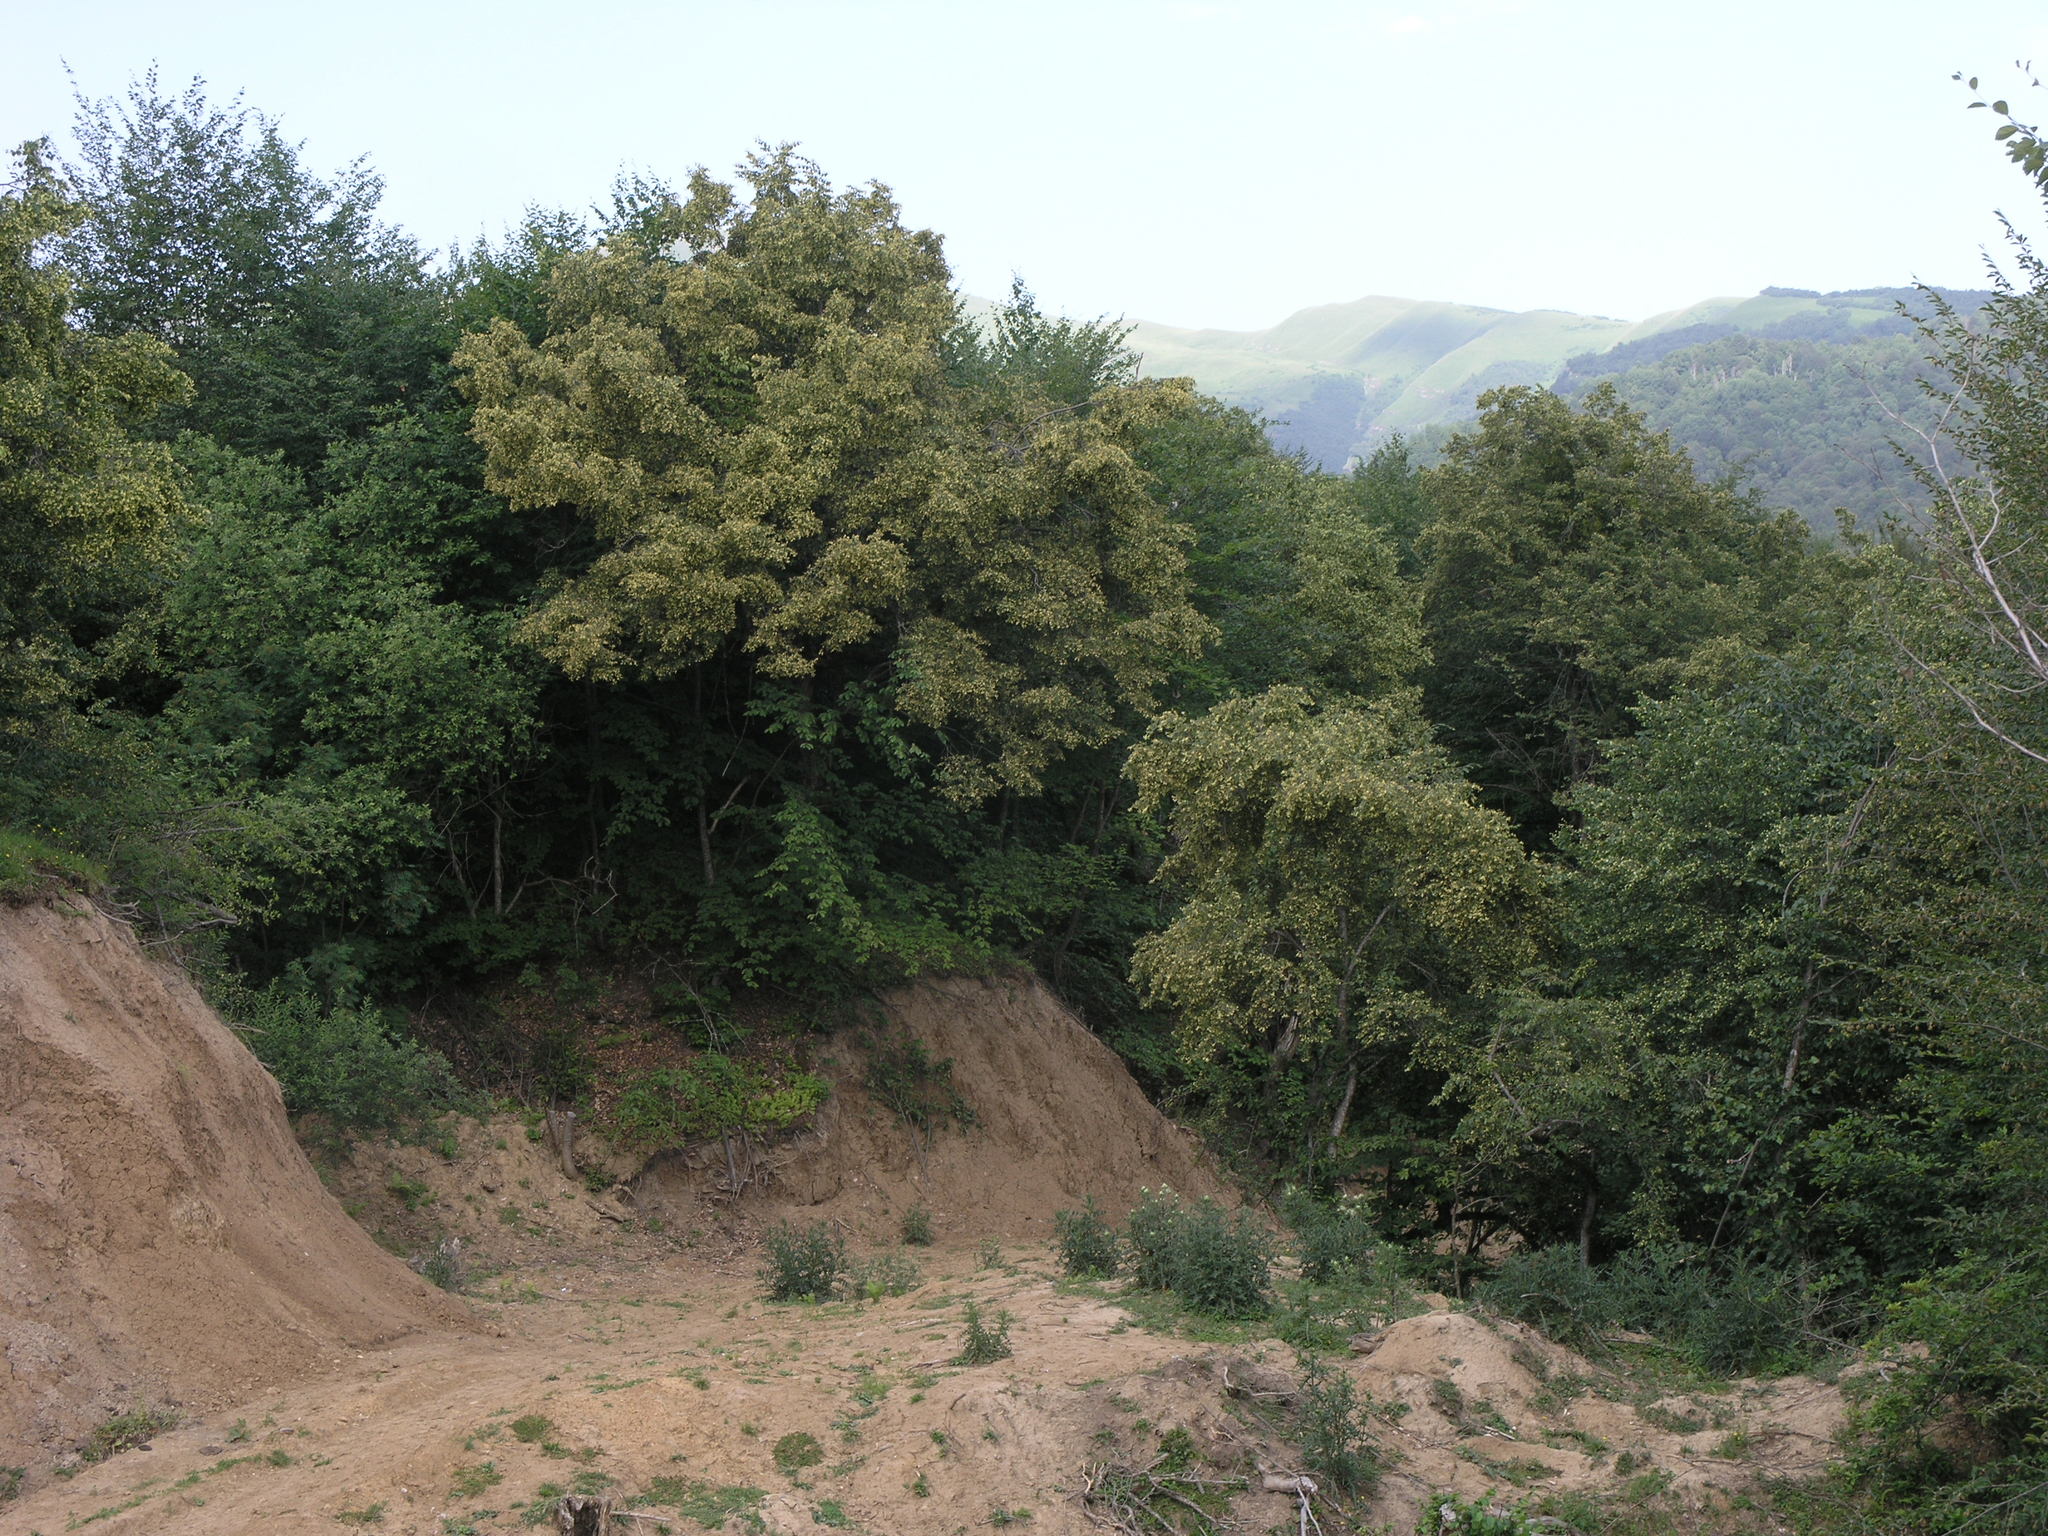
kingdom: Plantae
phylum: Tracheophyta
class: Magnoliopsida
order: Malvales
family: Malvaceae
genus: Tilia
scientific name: Tilia cordata
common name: Small-leaved lime
